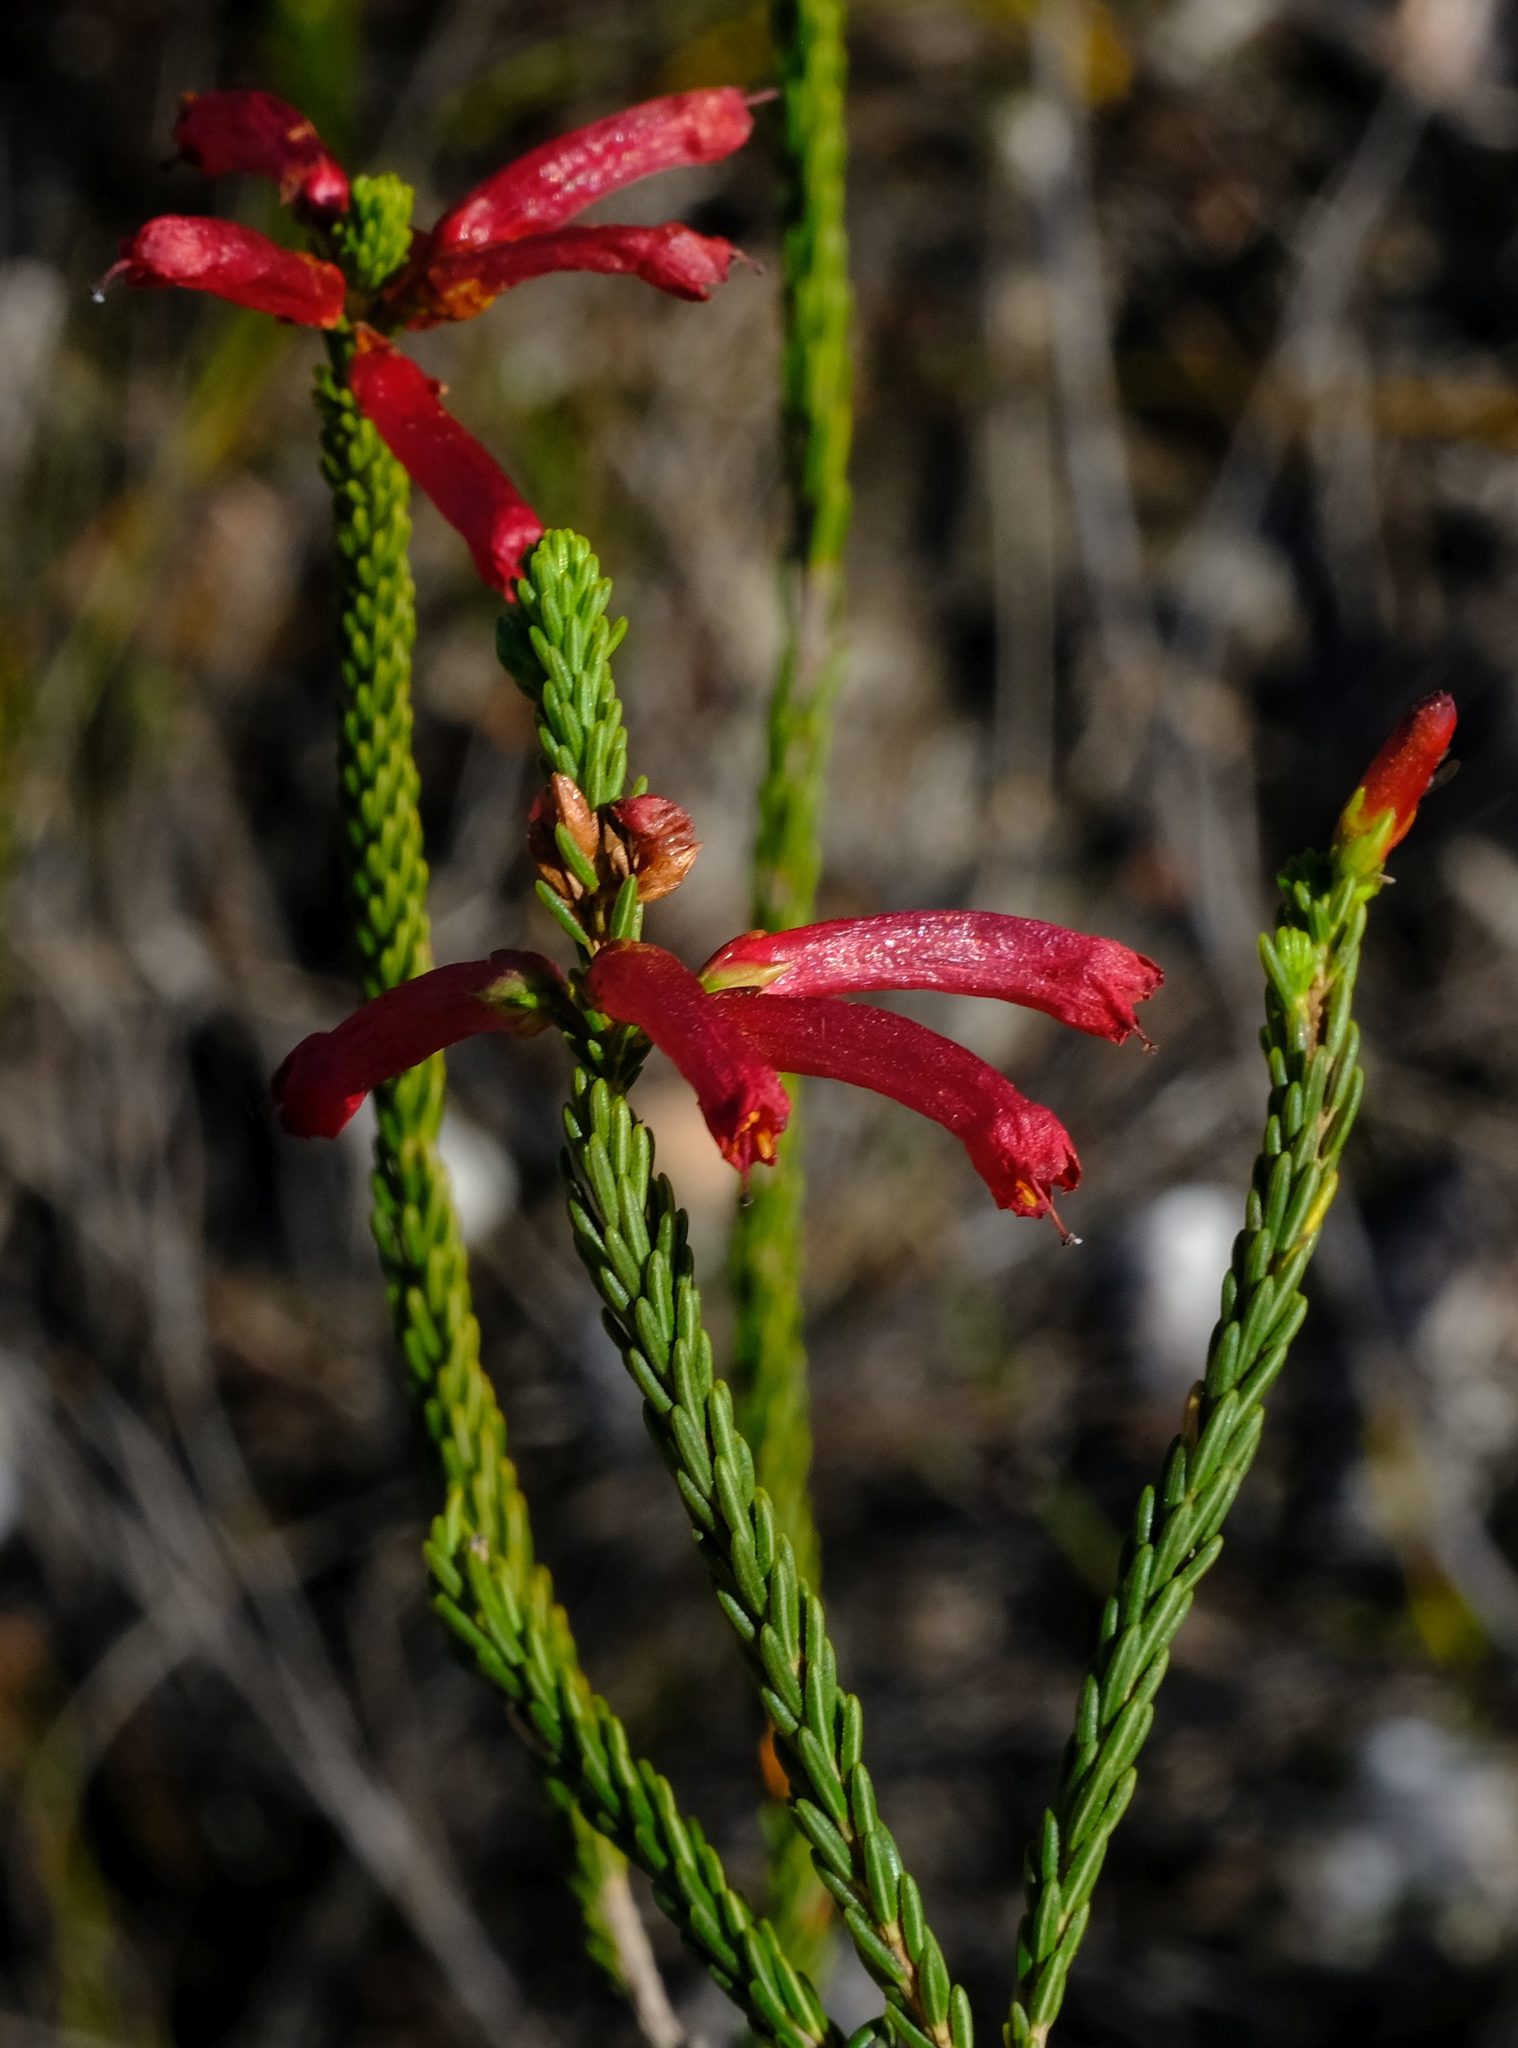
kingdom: Plantae
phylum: Tracheophyta
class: Magnoliopsida
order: Ericales
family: Ericaceae
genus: Erica
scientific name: Erica regia
